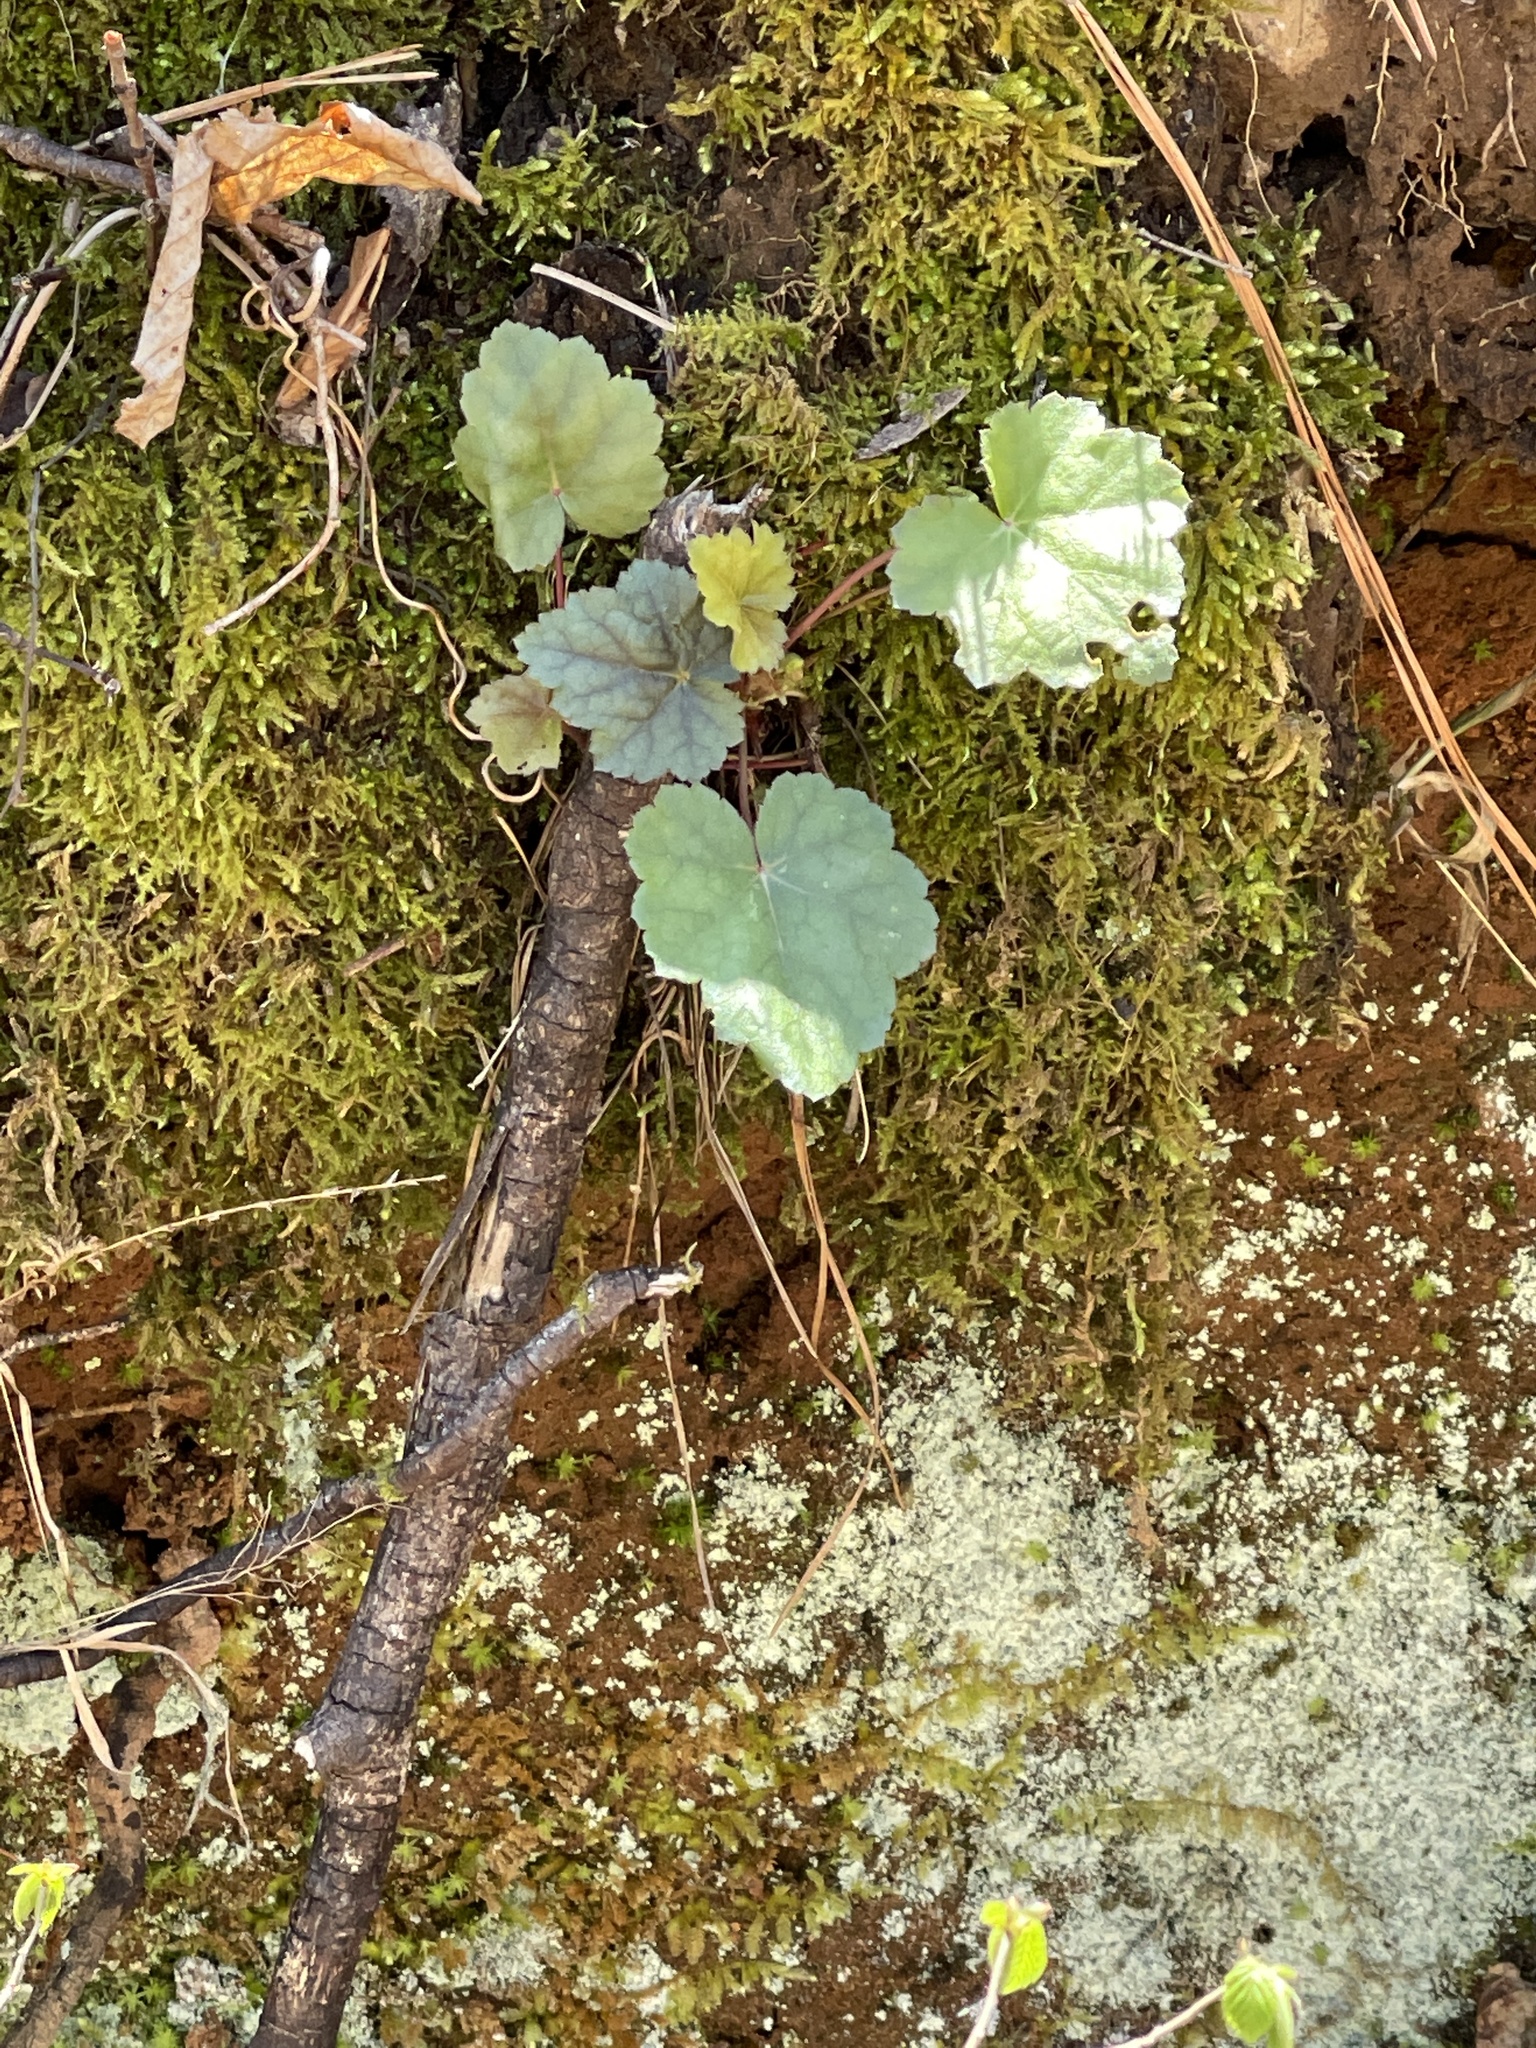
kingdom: Plantae
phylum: Tracheophyta
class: Magnoliopsida
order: Saxifragales
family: Saxifragaceae
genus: Tiarella
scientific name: Tiarella wherryi
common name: Tufted foamflower
